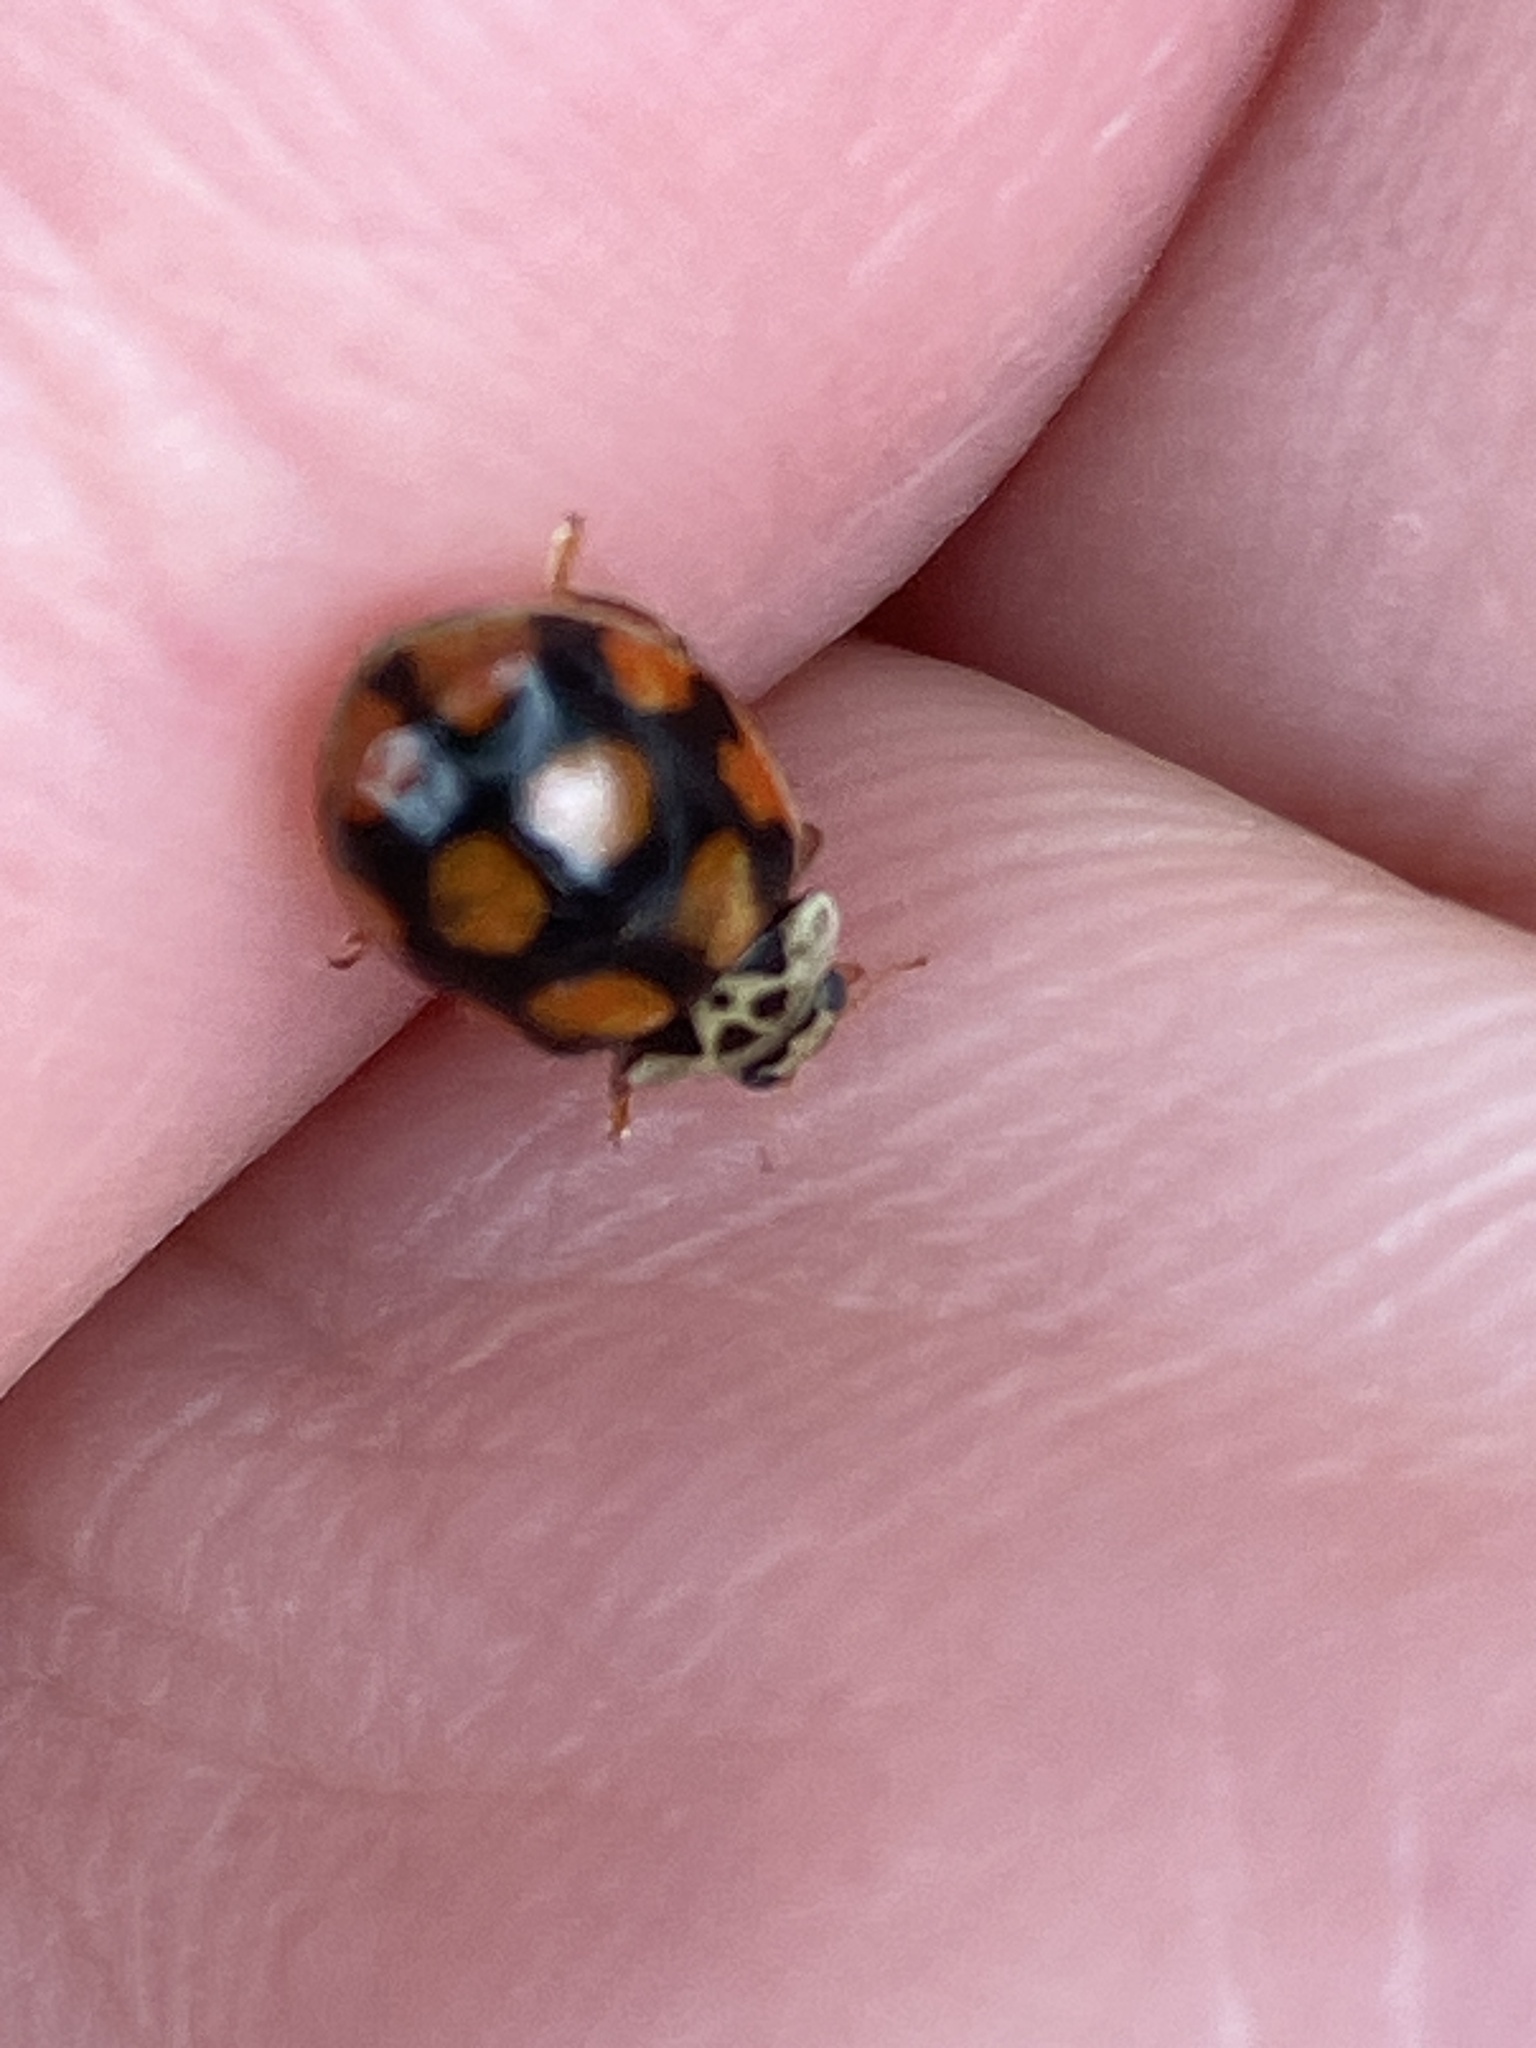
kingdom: Animalia
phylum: Arthropoda
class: Insecta
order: Coleoptera
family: Coccinellidae
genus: Adalia
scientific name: Adalia decempunctata
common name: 10-spot ladybird
